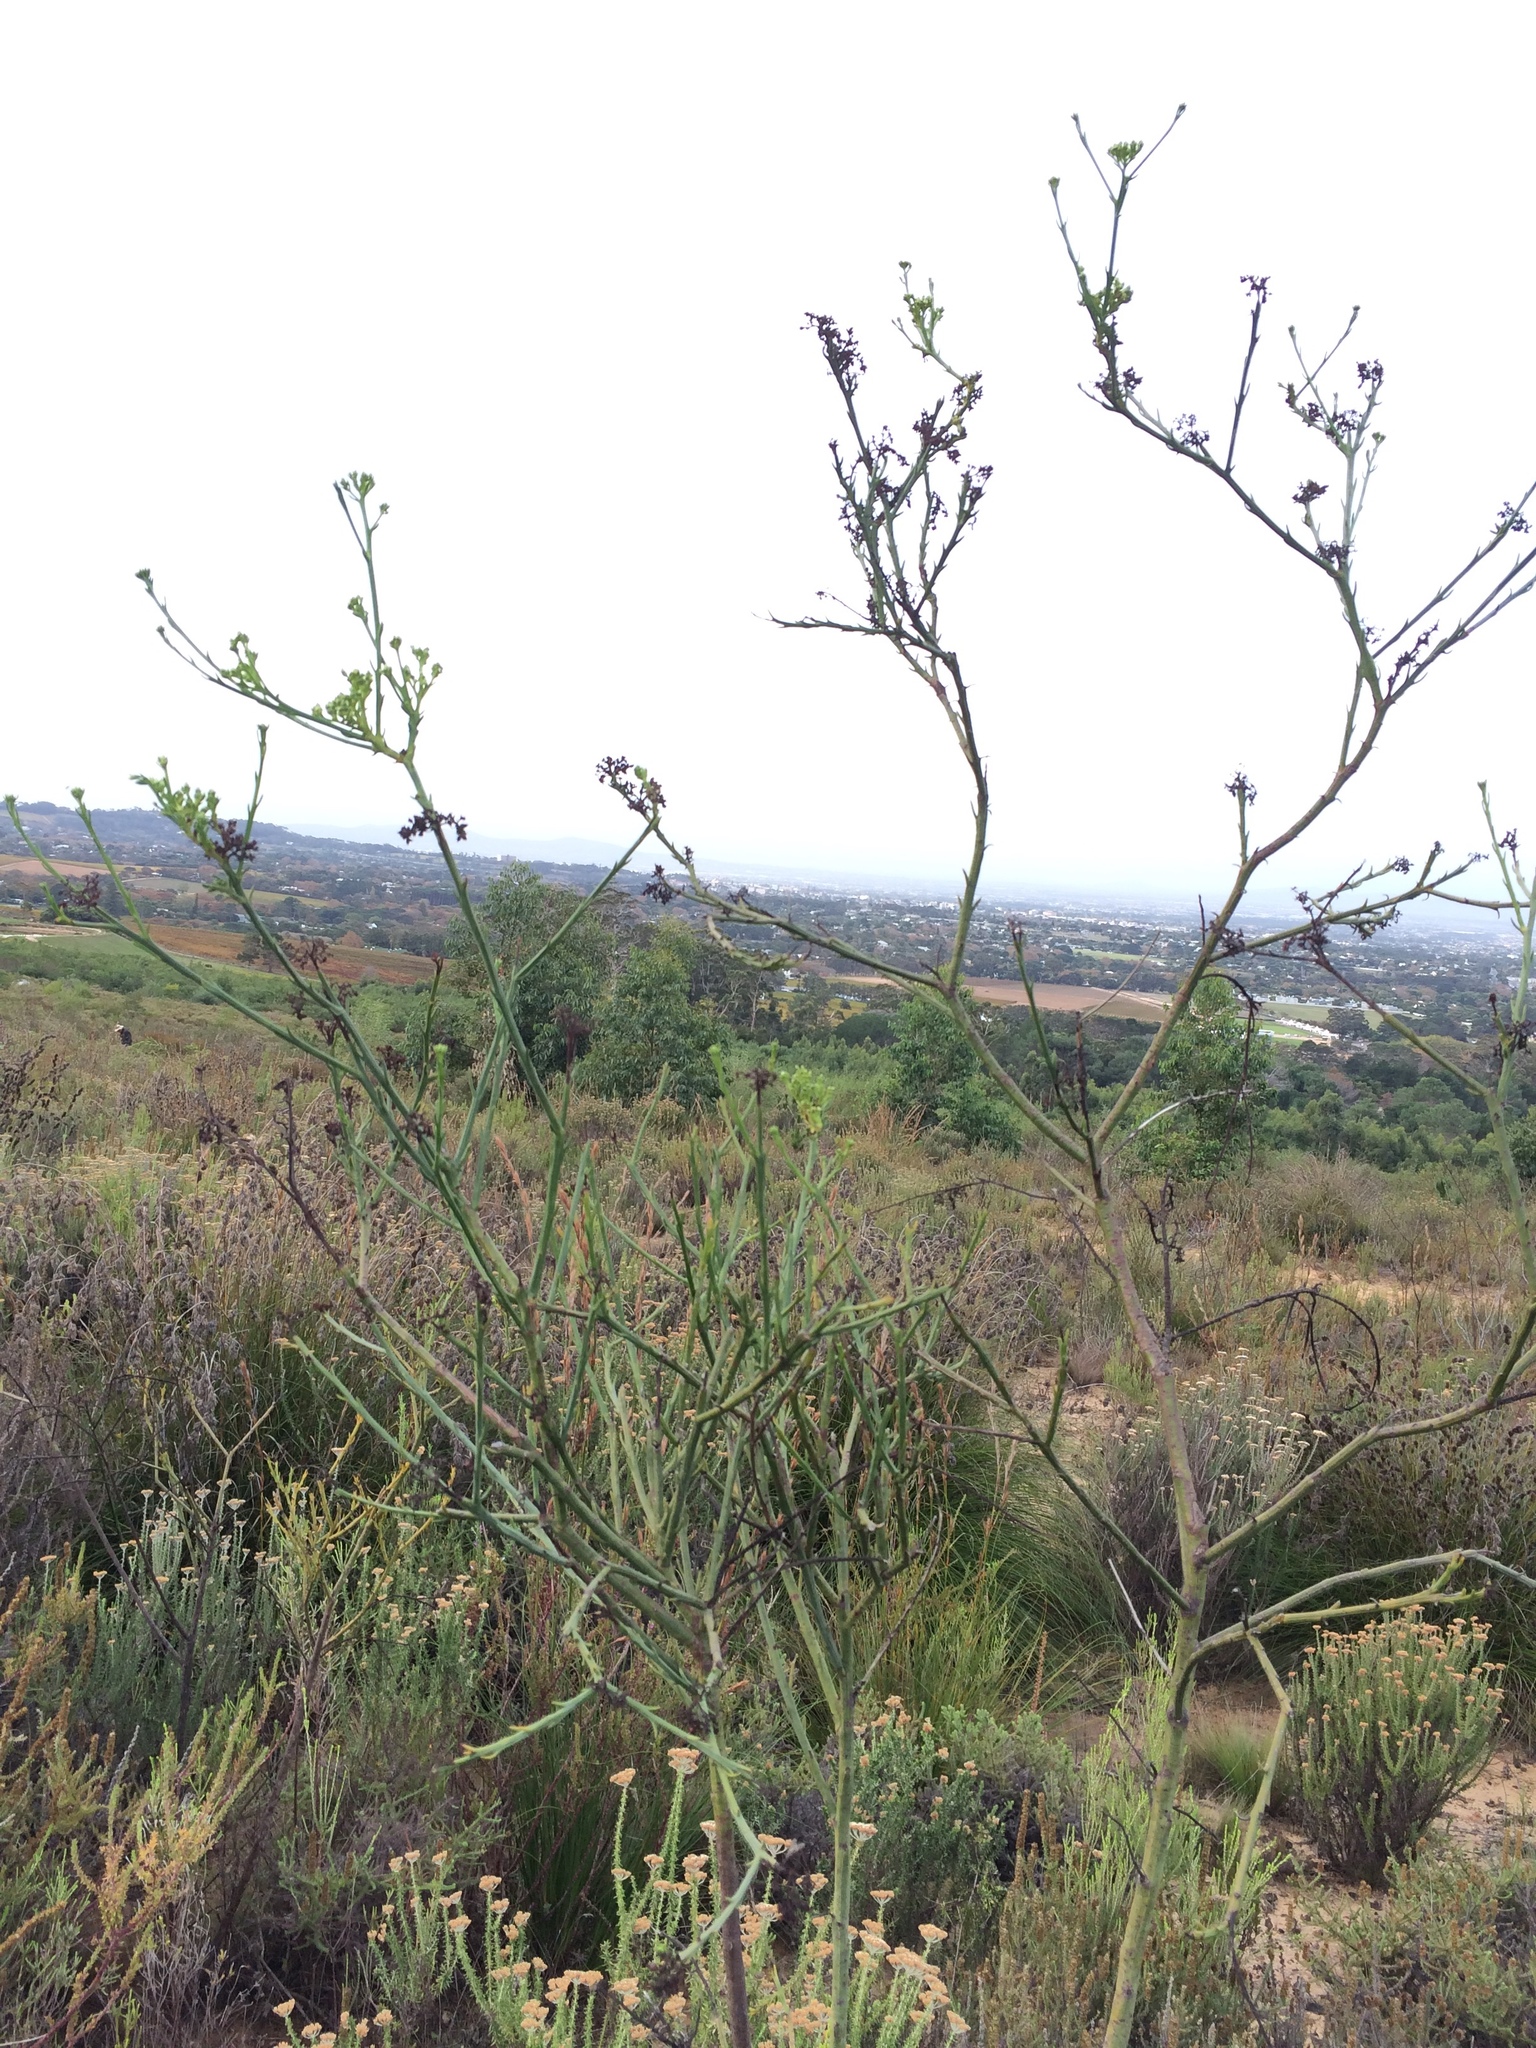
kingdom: Plantae
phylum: Tracheophyta
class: Magnoliopsida
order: Santalales
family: Thesiaceae
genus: Thesium
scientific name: Thesium strictum
